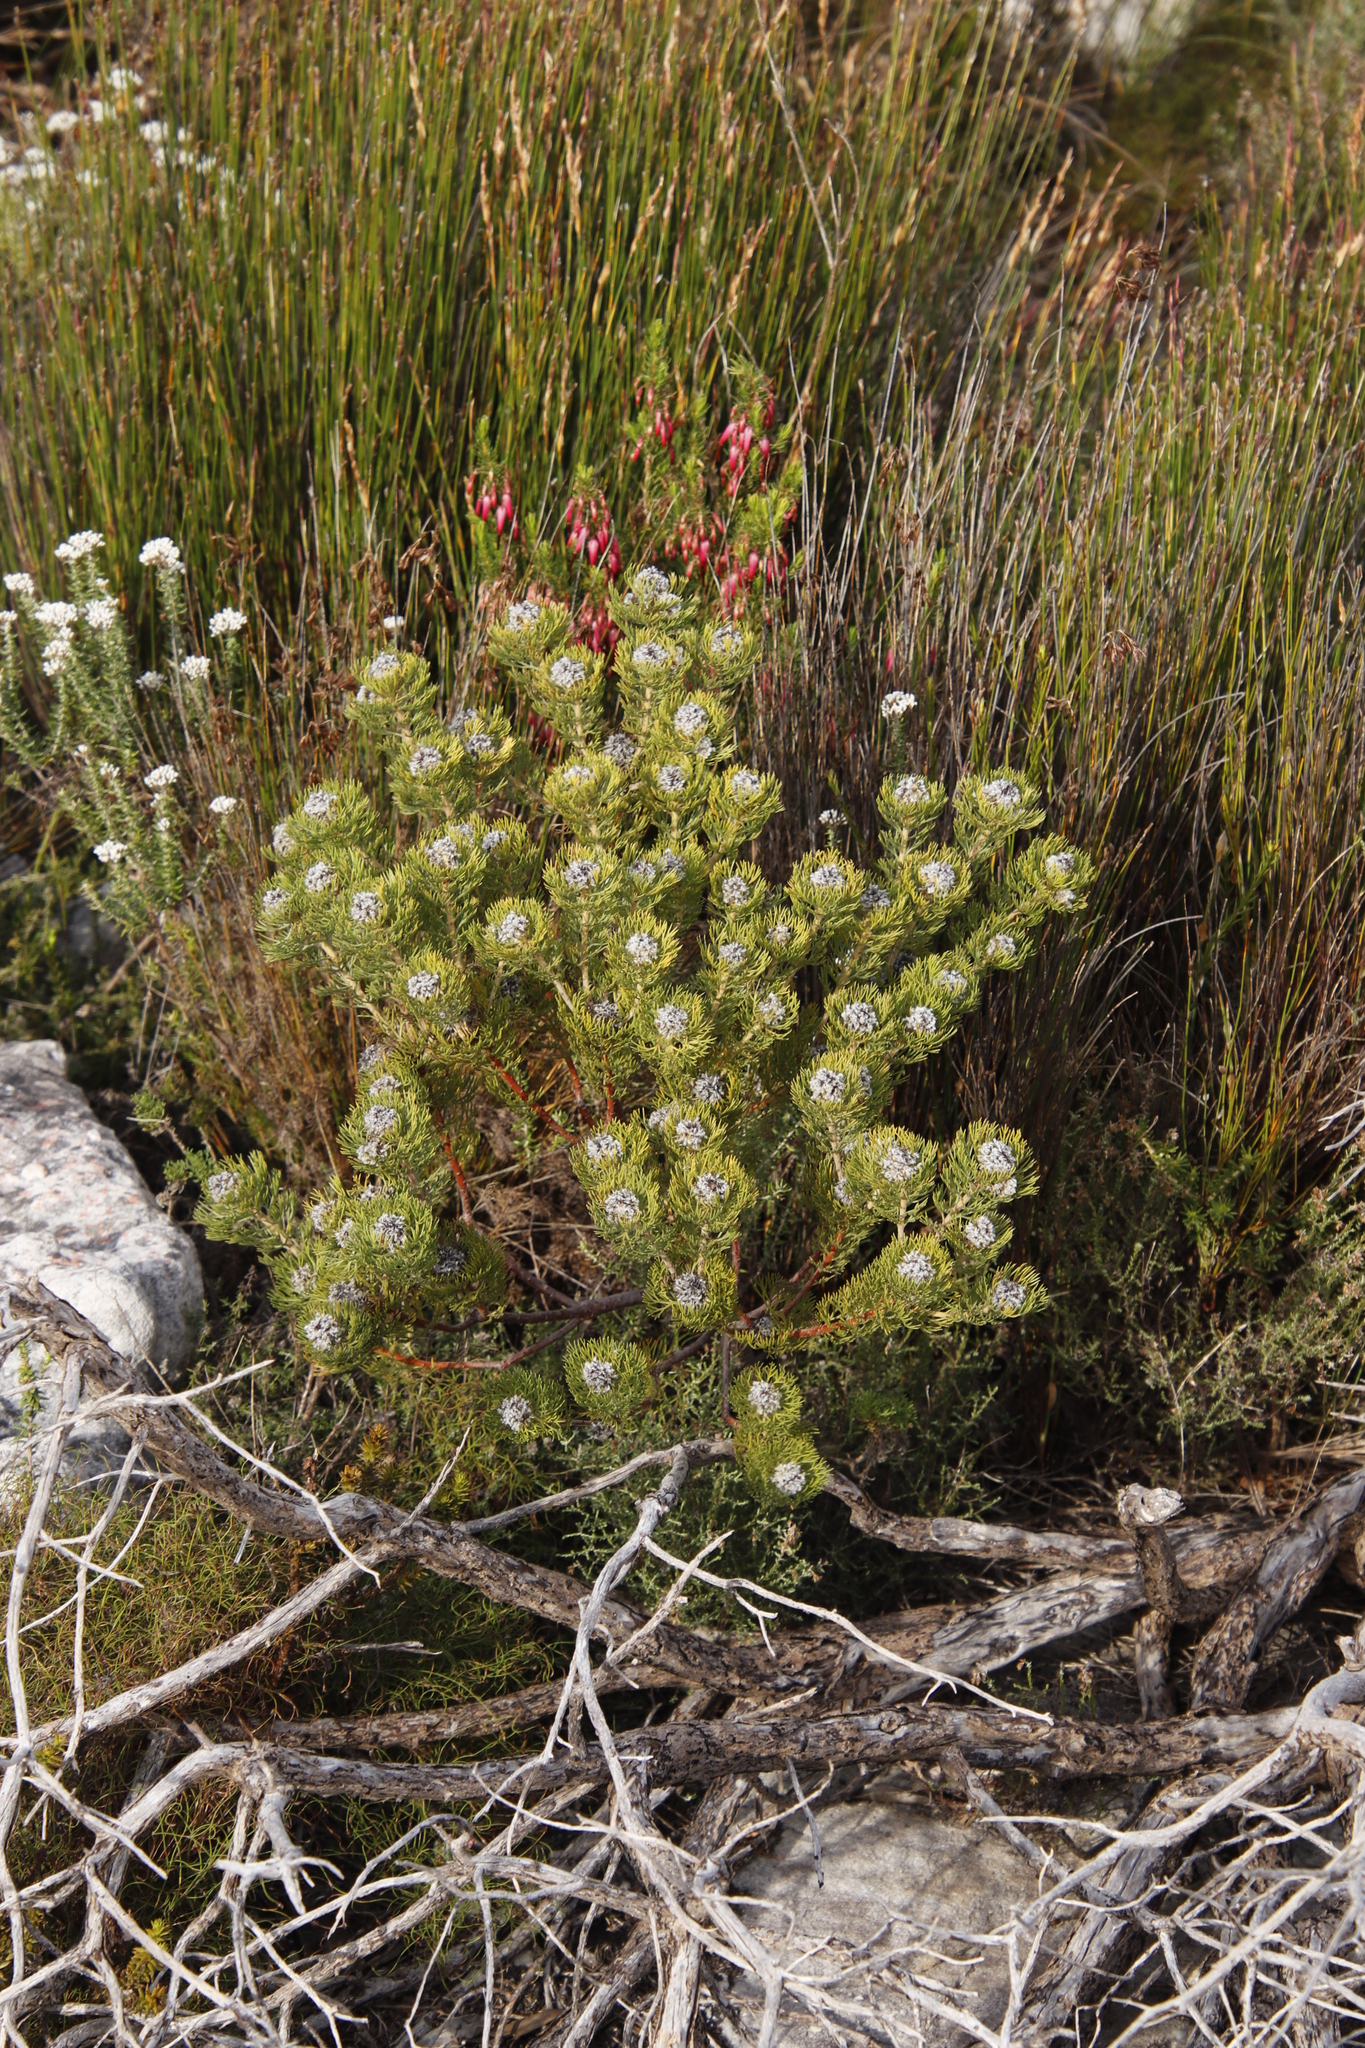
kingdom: Plantae
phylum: Tracheophyta
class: Magnoliopsida
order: Proteales
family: Proteaceae
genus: Serruria
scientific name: Serruria villosa
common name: Golden spiderhead
